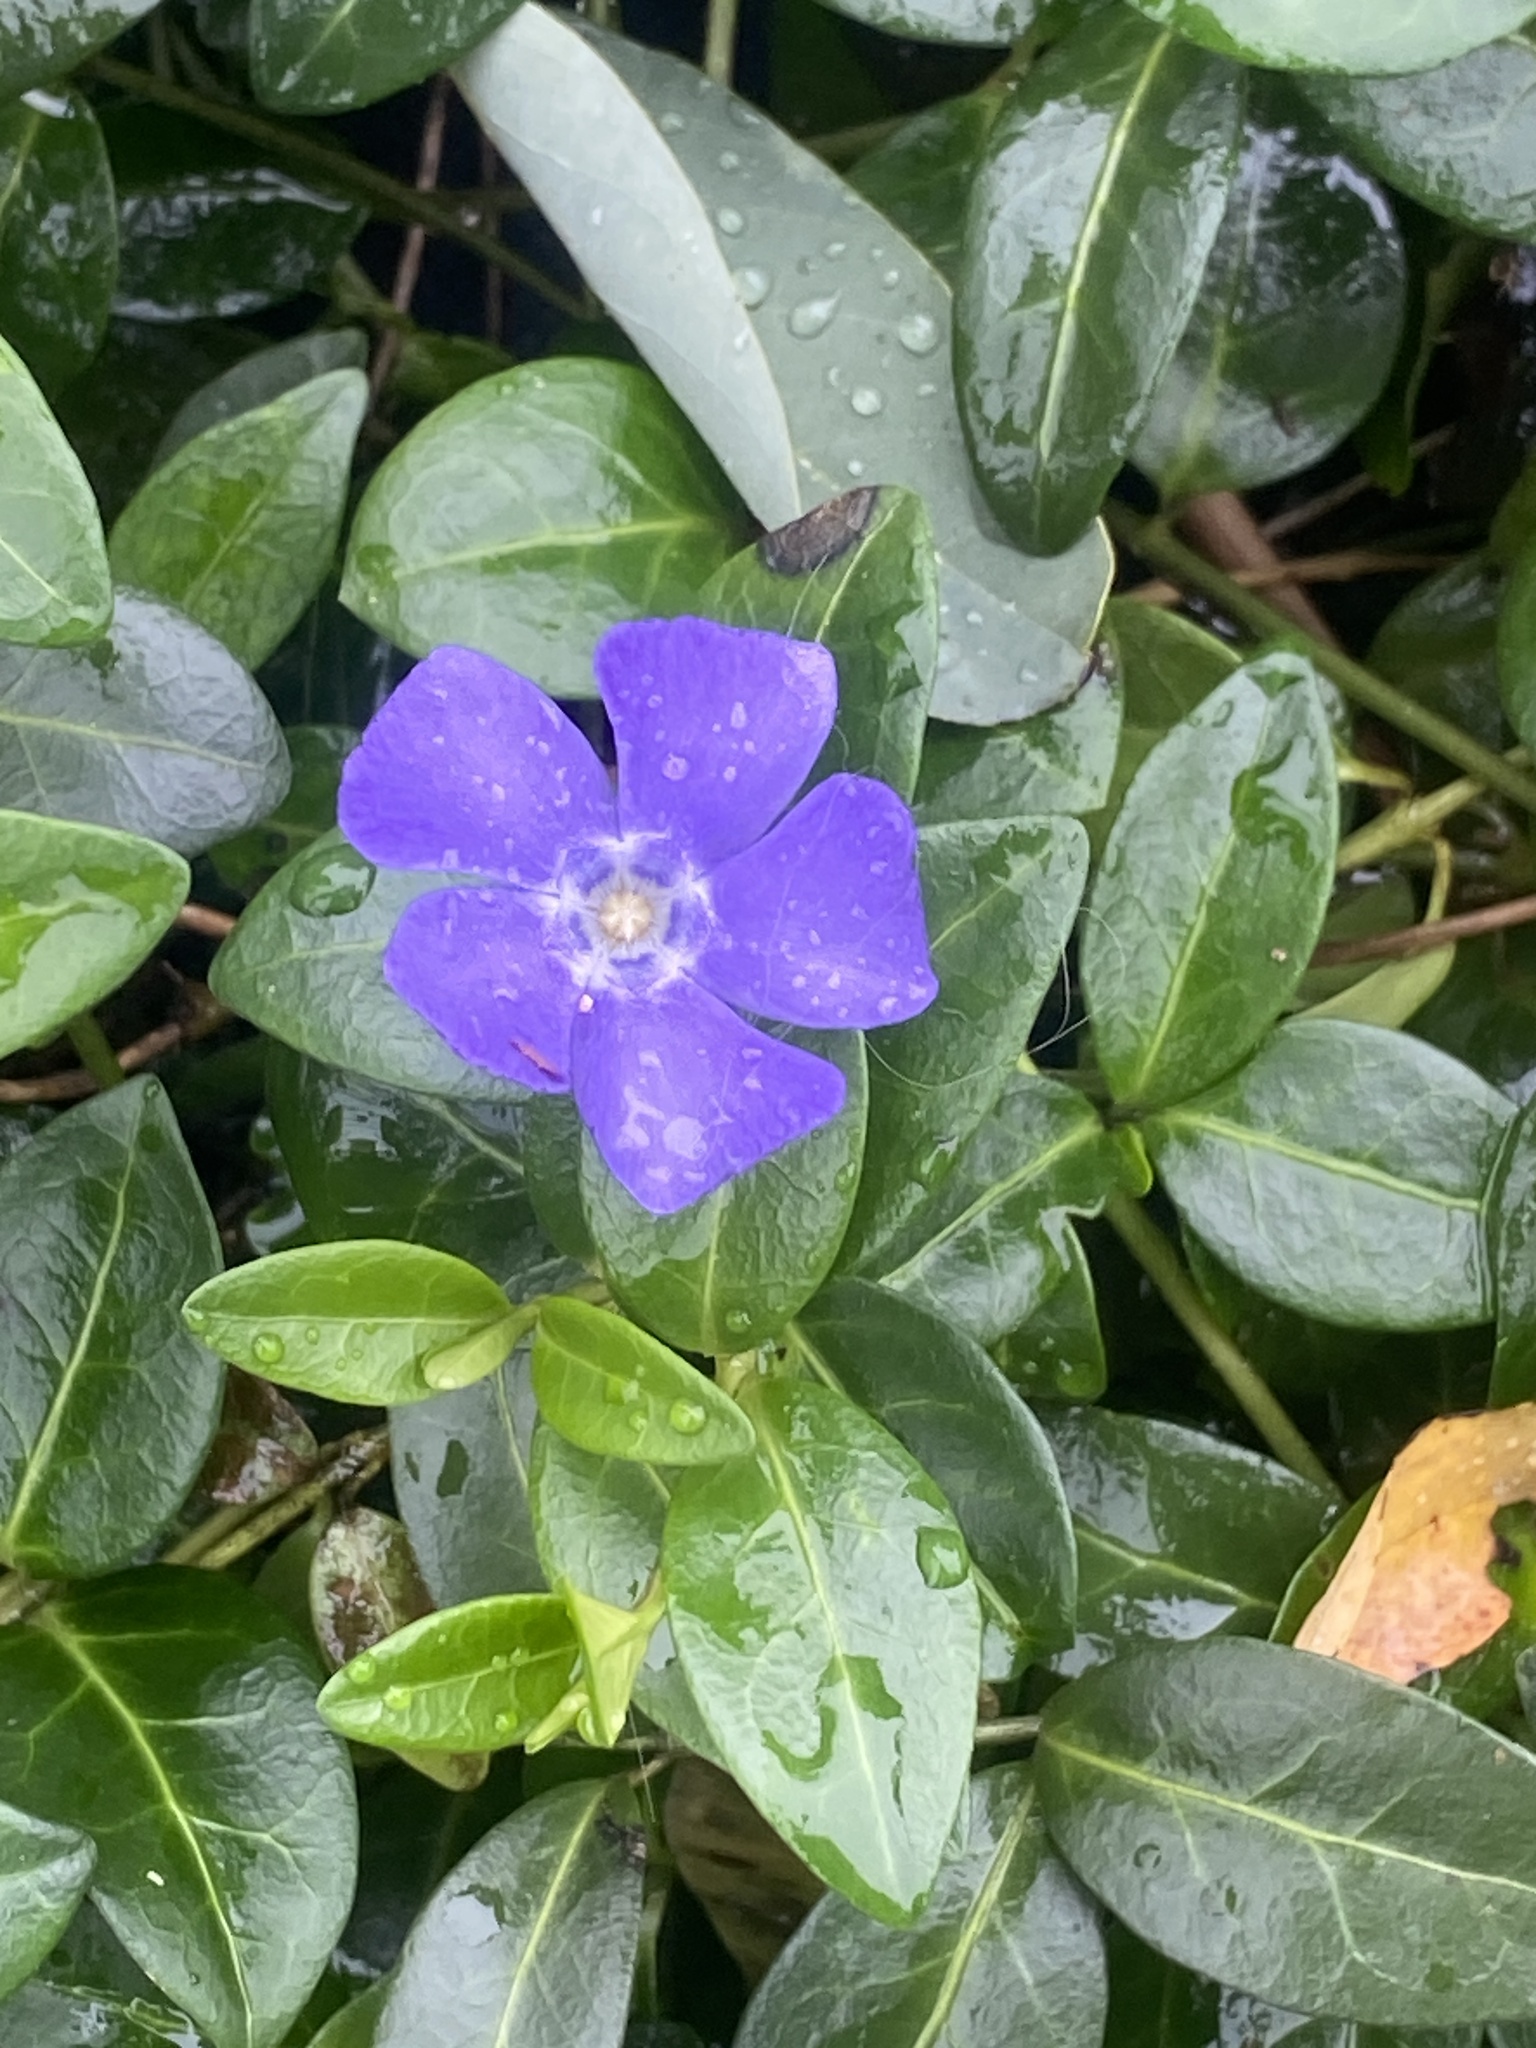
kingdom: Plantae
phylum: Tracheophyta
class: Magnoliopsida
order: Gentianales
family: Apocynaceae
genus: Vinca
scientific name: Vinca minor
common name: Lesser periwinkle
